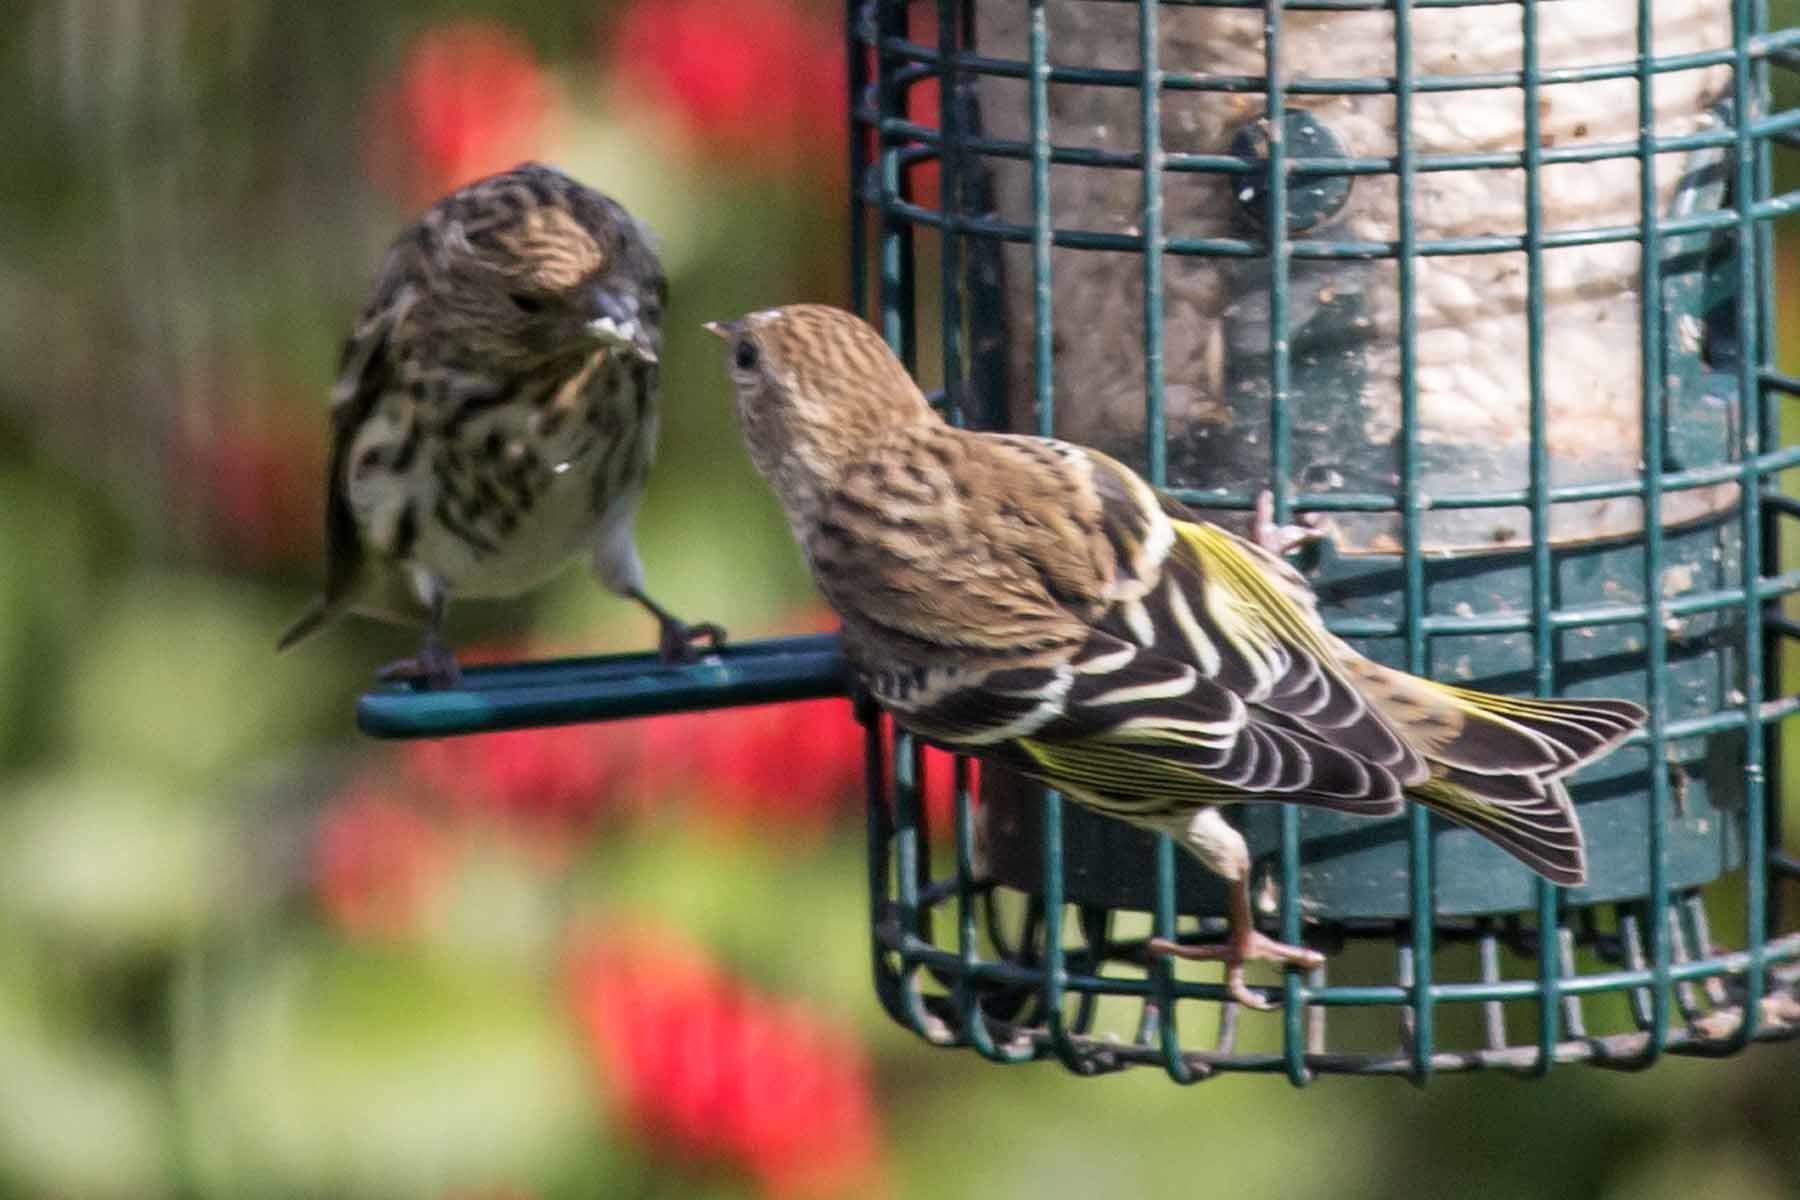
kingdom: Animalia
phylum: Chordata
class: Aves
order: Passeriformes
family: Fringillidae
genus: Spinus
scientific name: Spinus pinus
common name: Pine siskin
